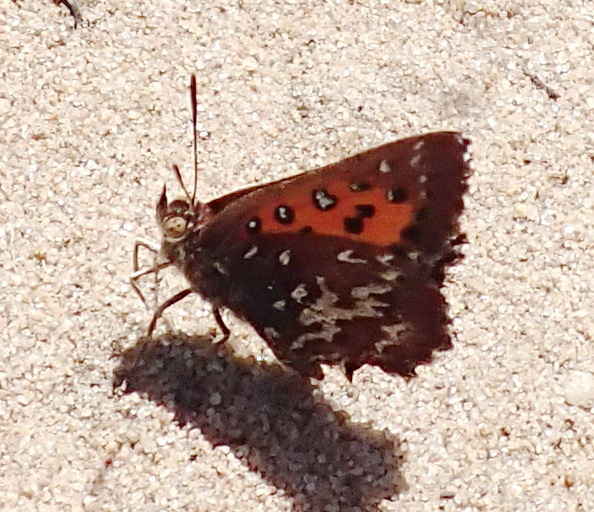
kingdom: Animalia
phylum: Arthropoda
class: Insecta
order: Lepidoptera
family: Lycaenidae
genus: Aloeides
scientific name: Aloeides thyra
